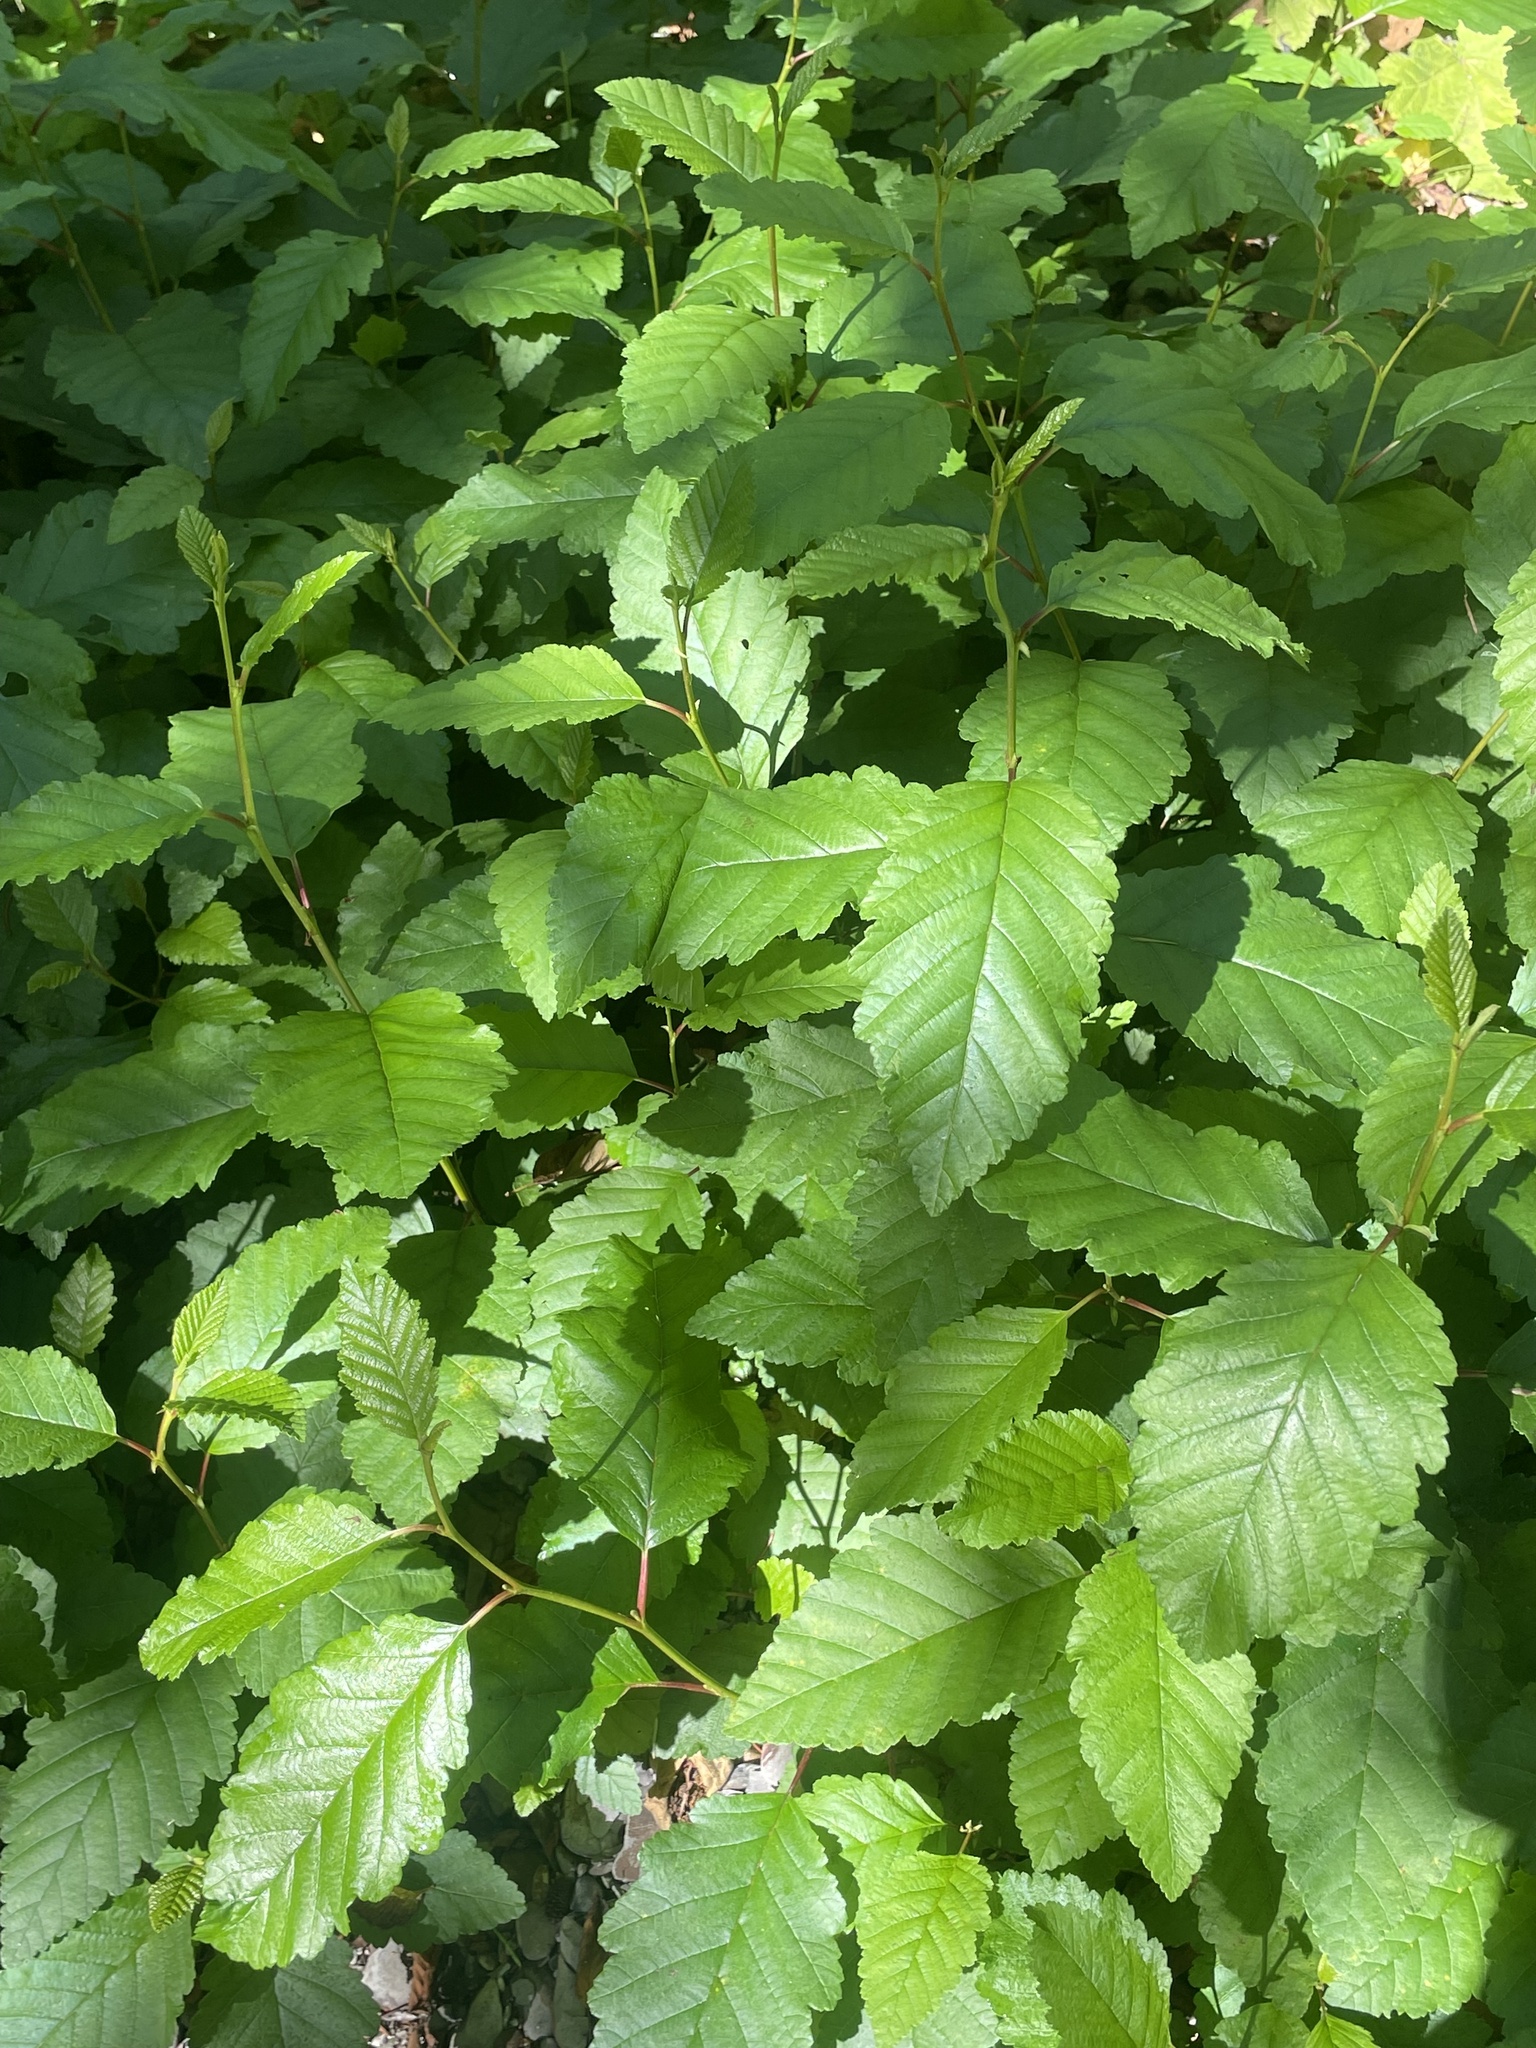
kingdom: Plantae
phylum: Tracheophyta
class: Magnoliopsida
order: Fagales
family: Betulaceae
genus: Alnus
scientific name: Alnus rubra
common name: Red alder
